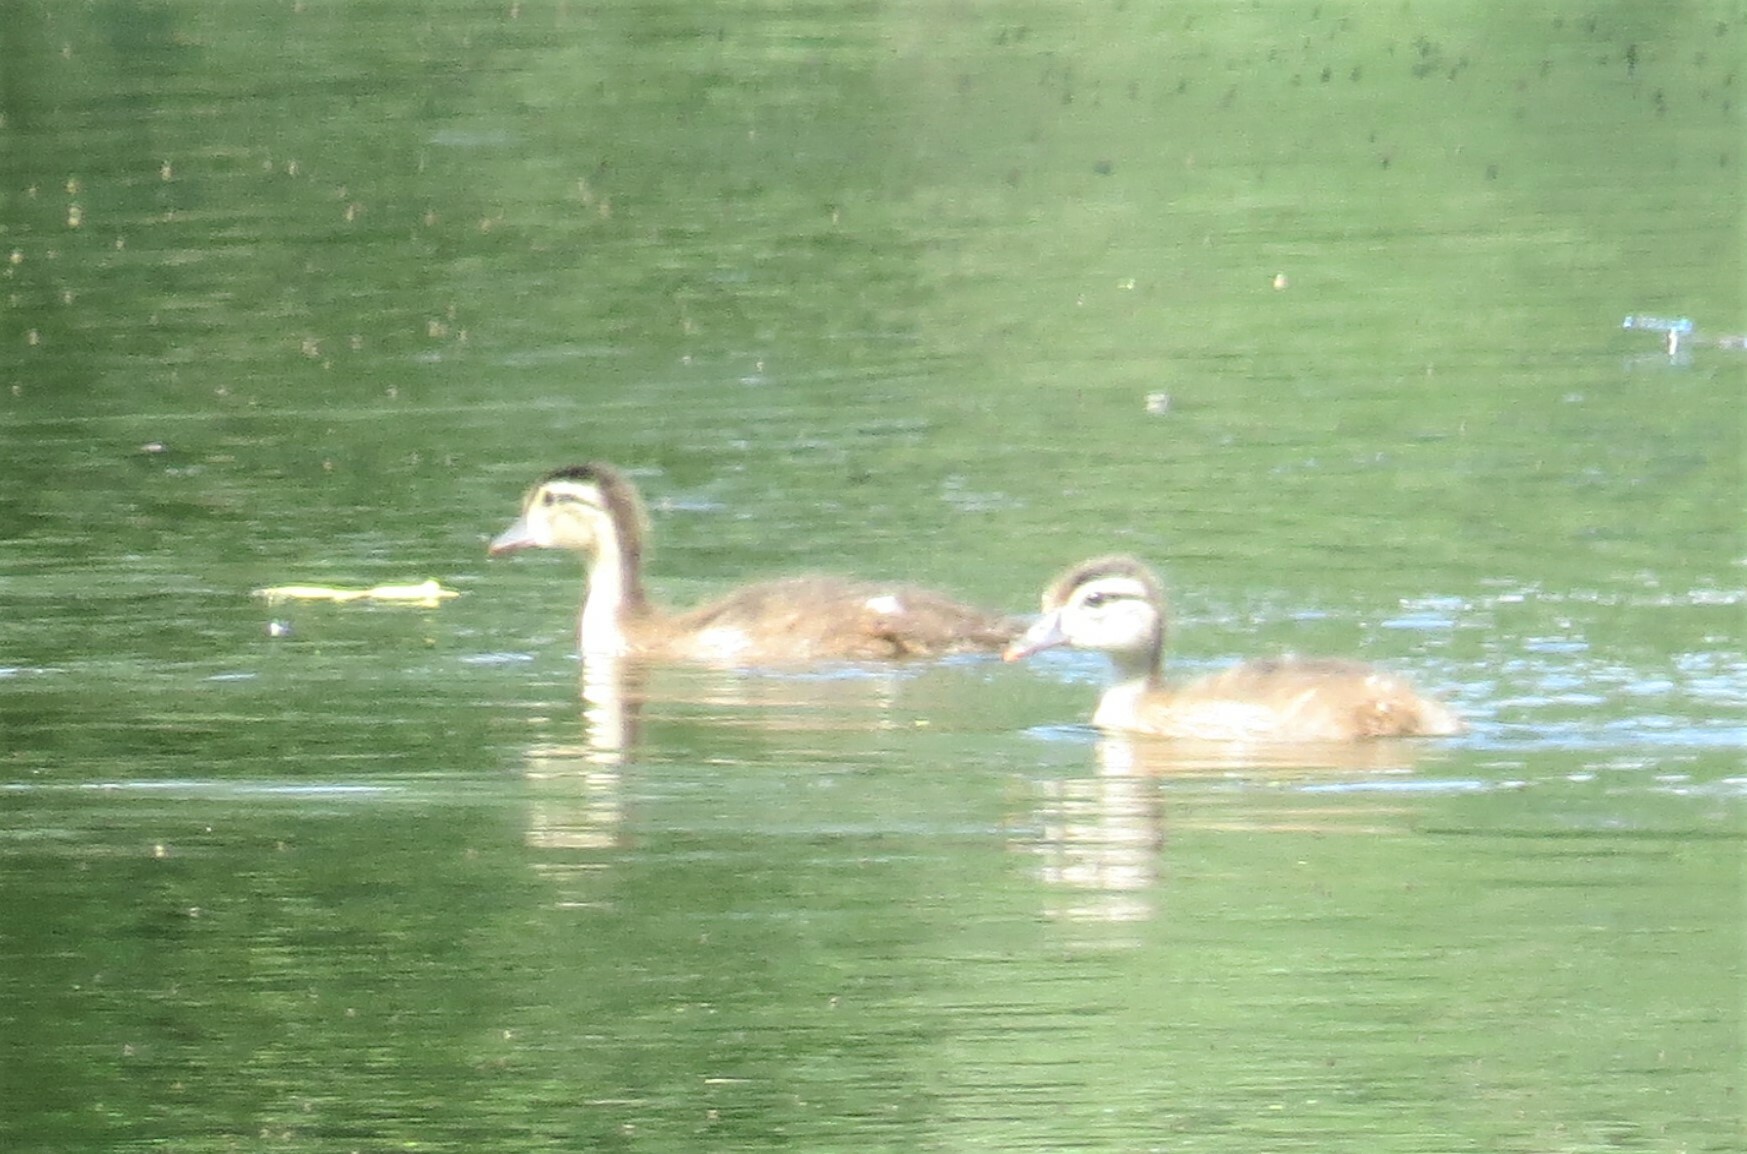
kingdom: Animalia
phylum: Chordata
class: Aves
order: Anseriformes
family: Anatidae
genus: Aix
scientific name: Aix sponsa
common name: Wood duck
